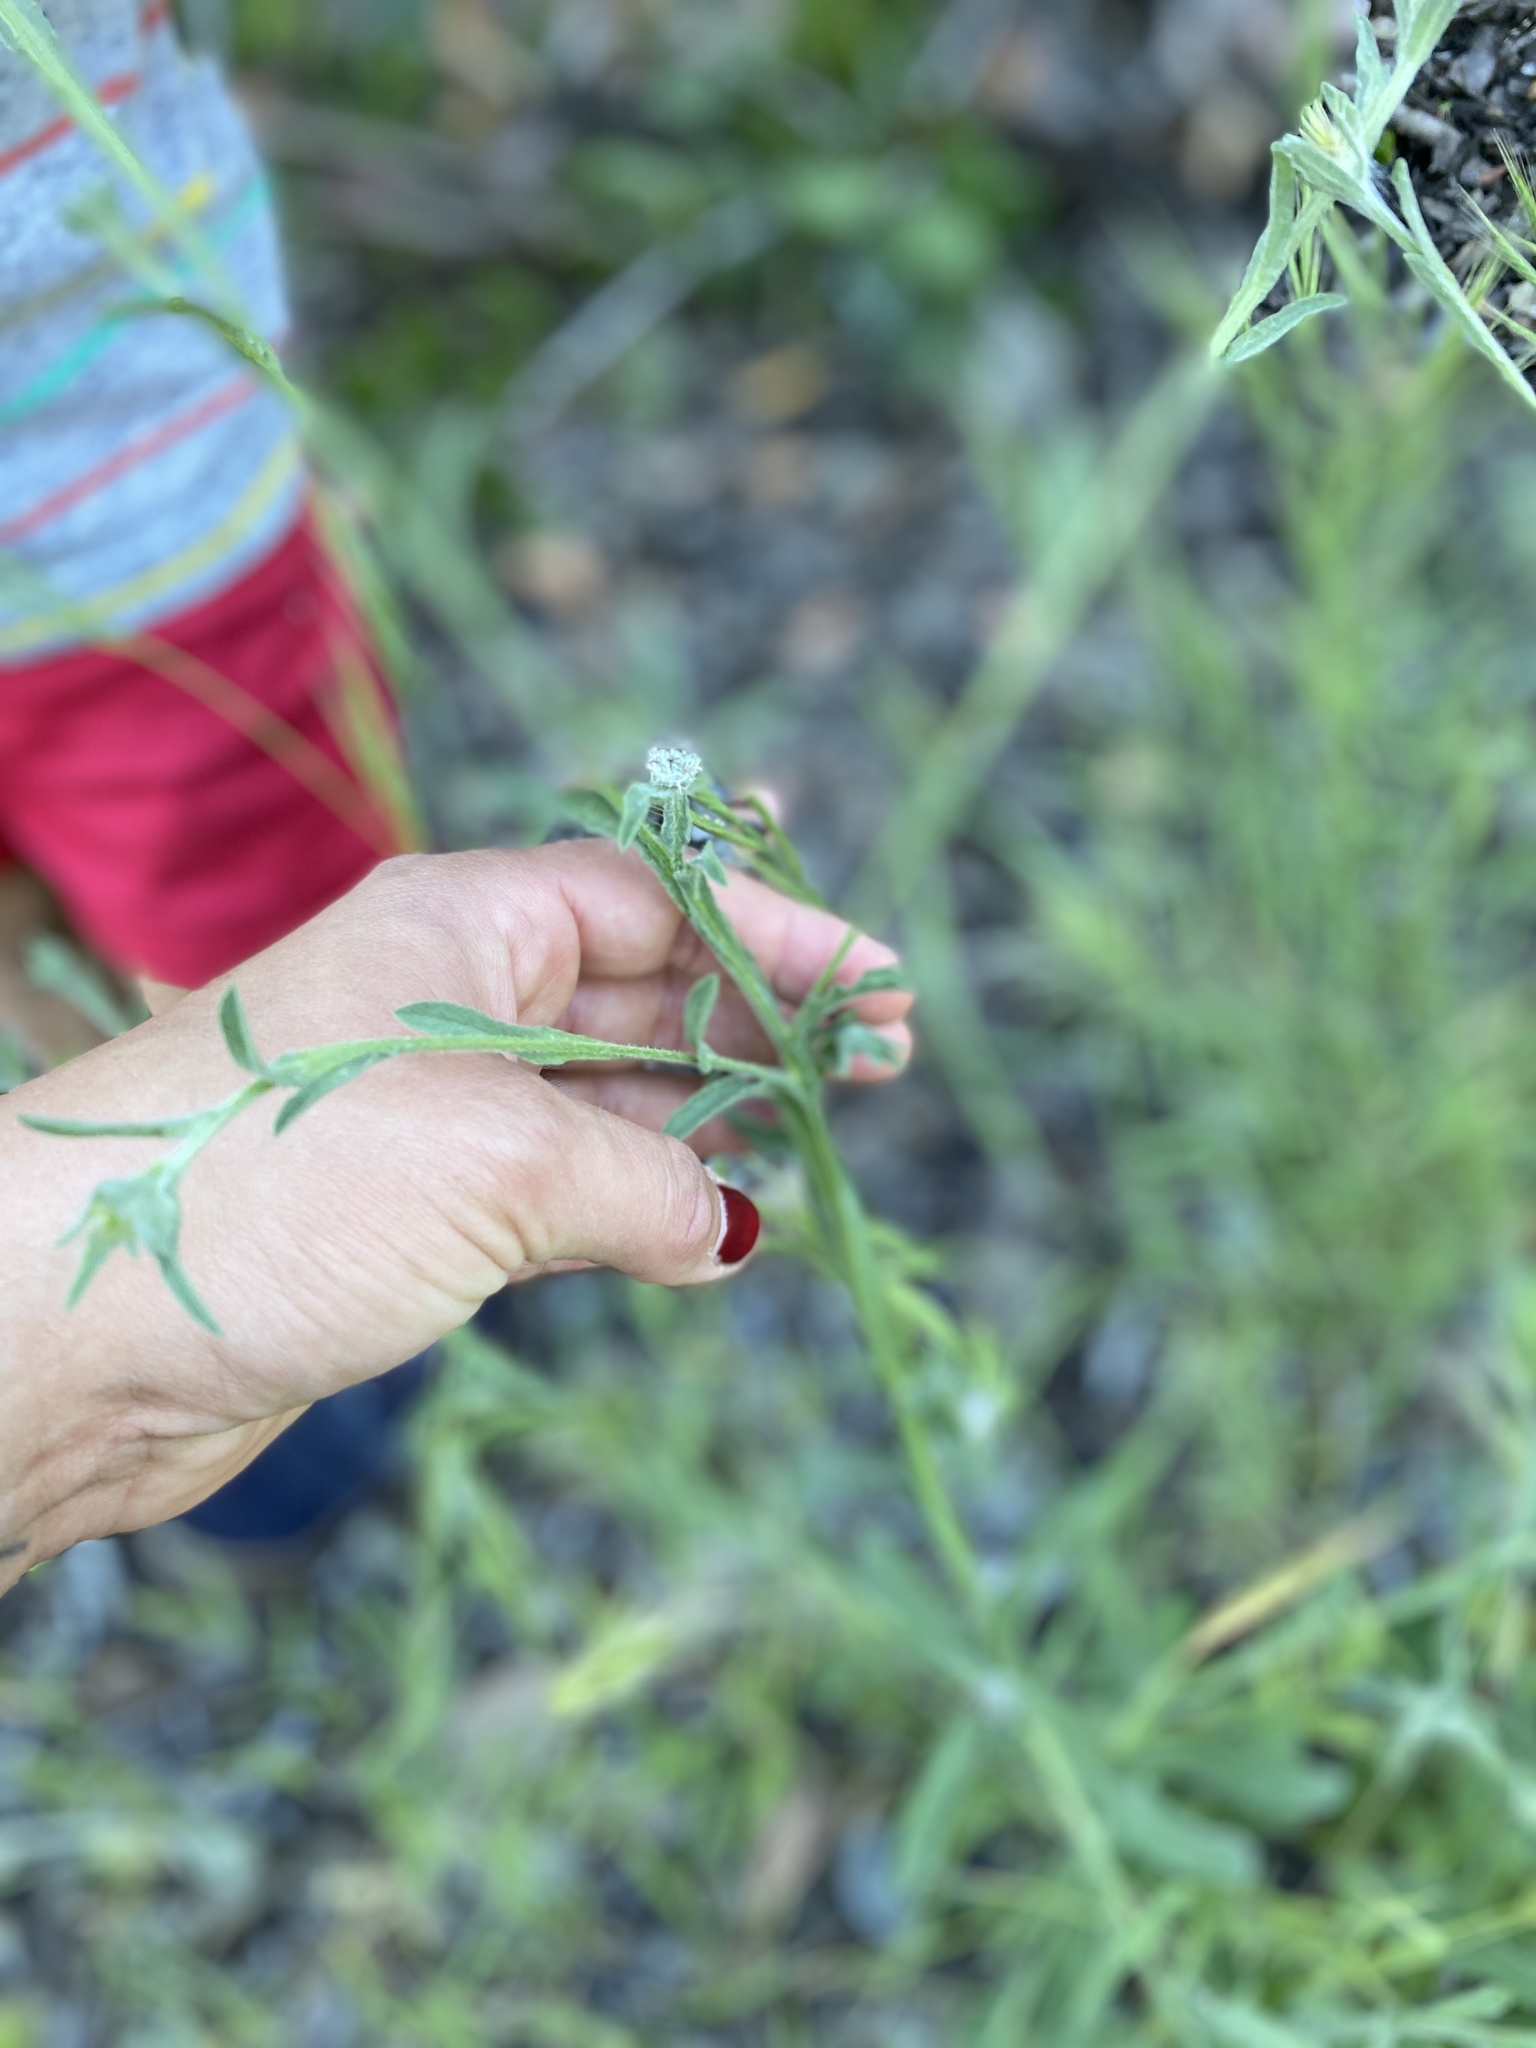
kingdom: Plantae
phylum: Tracheophyta
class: Magnoliopsida
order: Asterales
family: Asteraceae
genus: Centaurea
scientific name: Centaurea melitensis
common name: Maltese star-thistle
